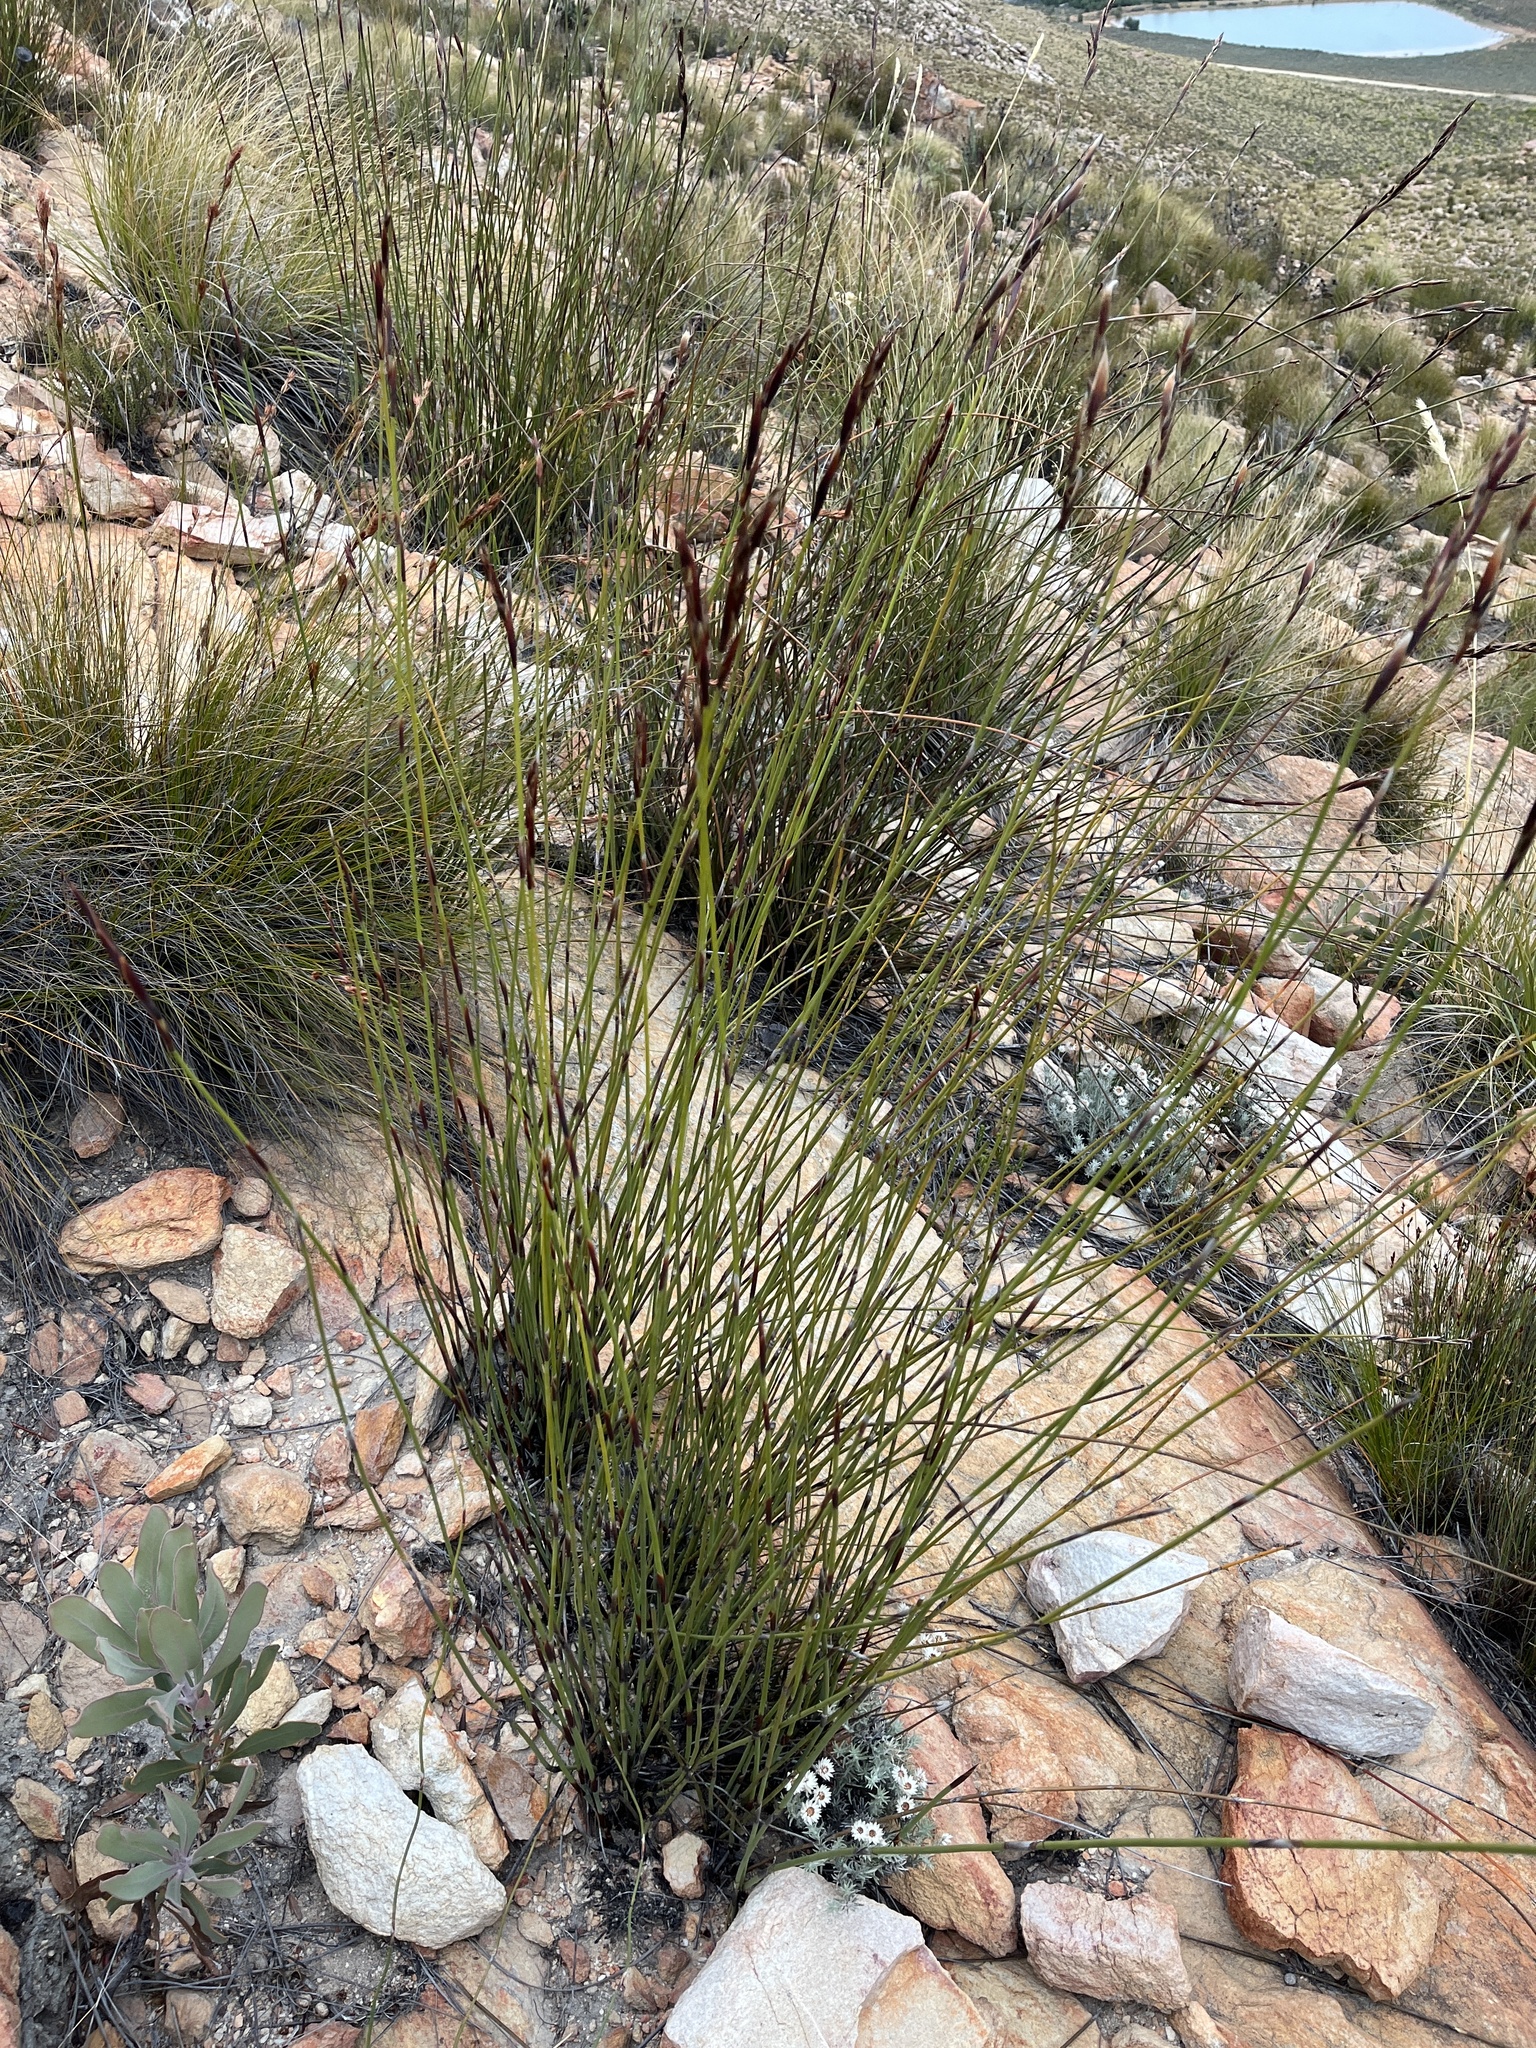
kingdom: Plantae
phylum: Tracheophyta
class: Liliopsida
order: Poales
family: Restionaceae
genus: Cannomois
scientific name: Cannomois scirpoides
